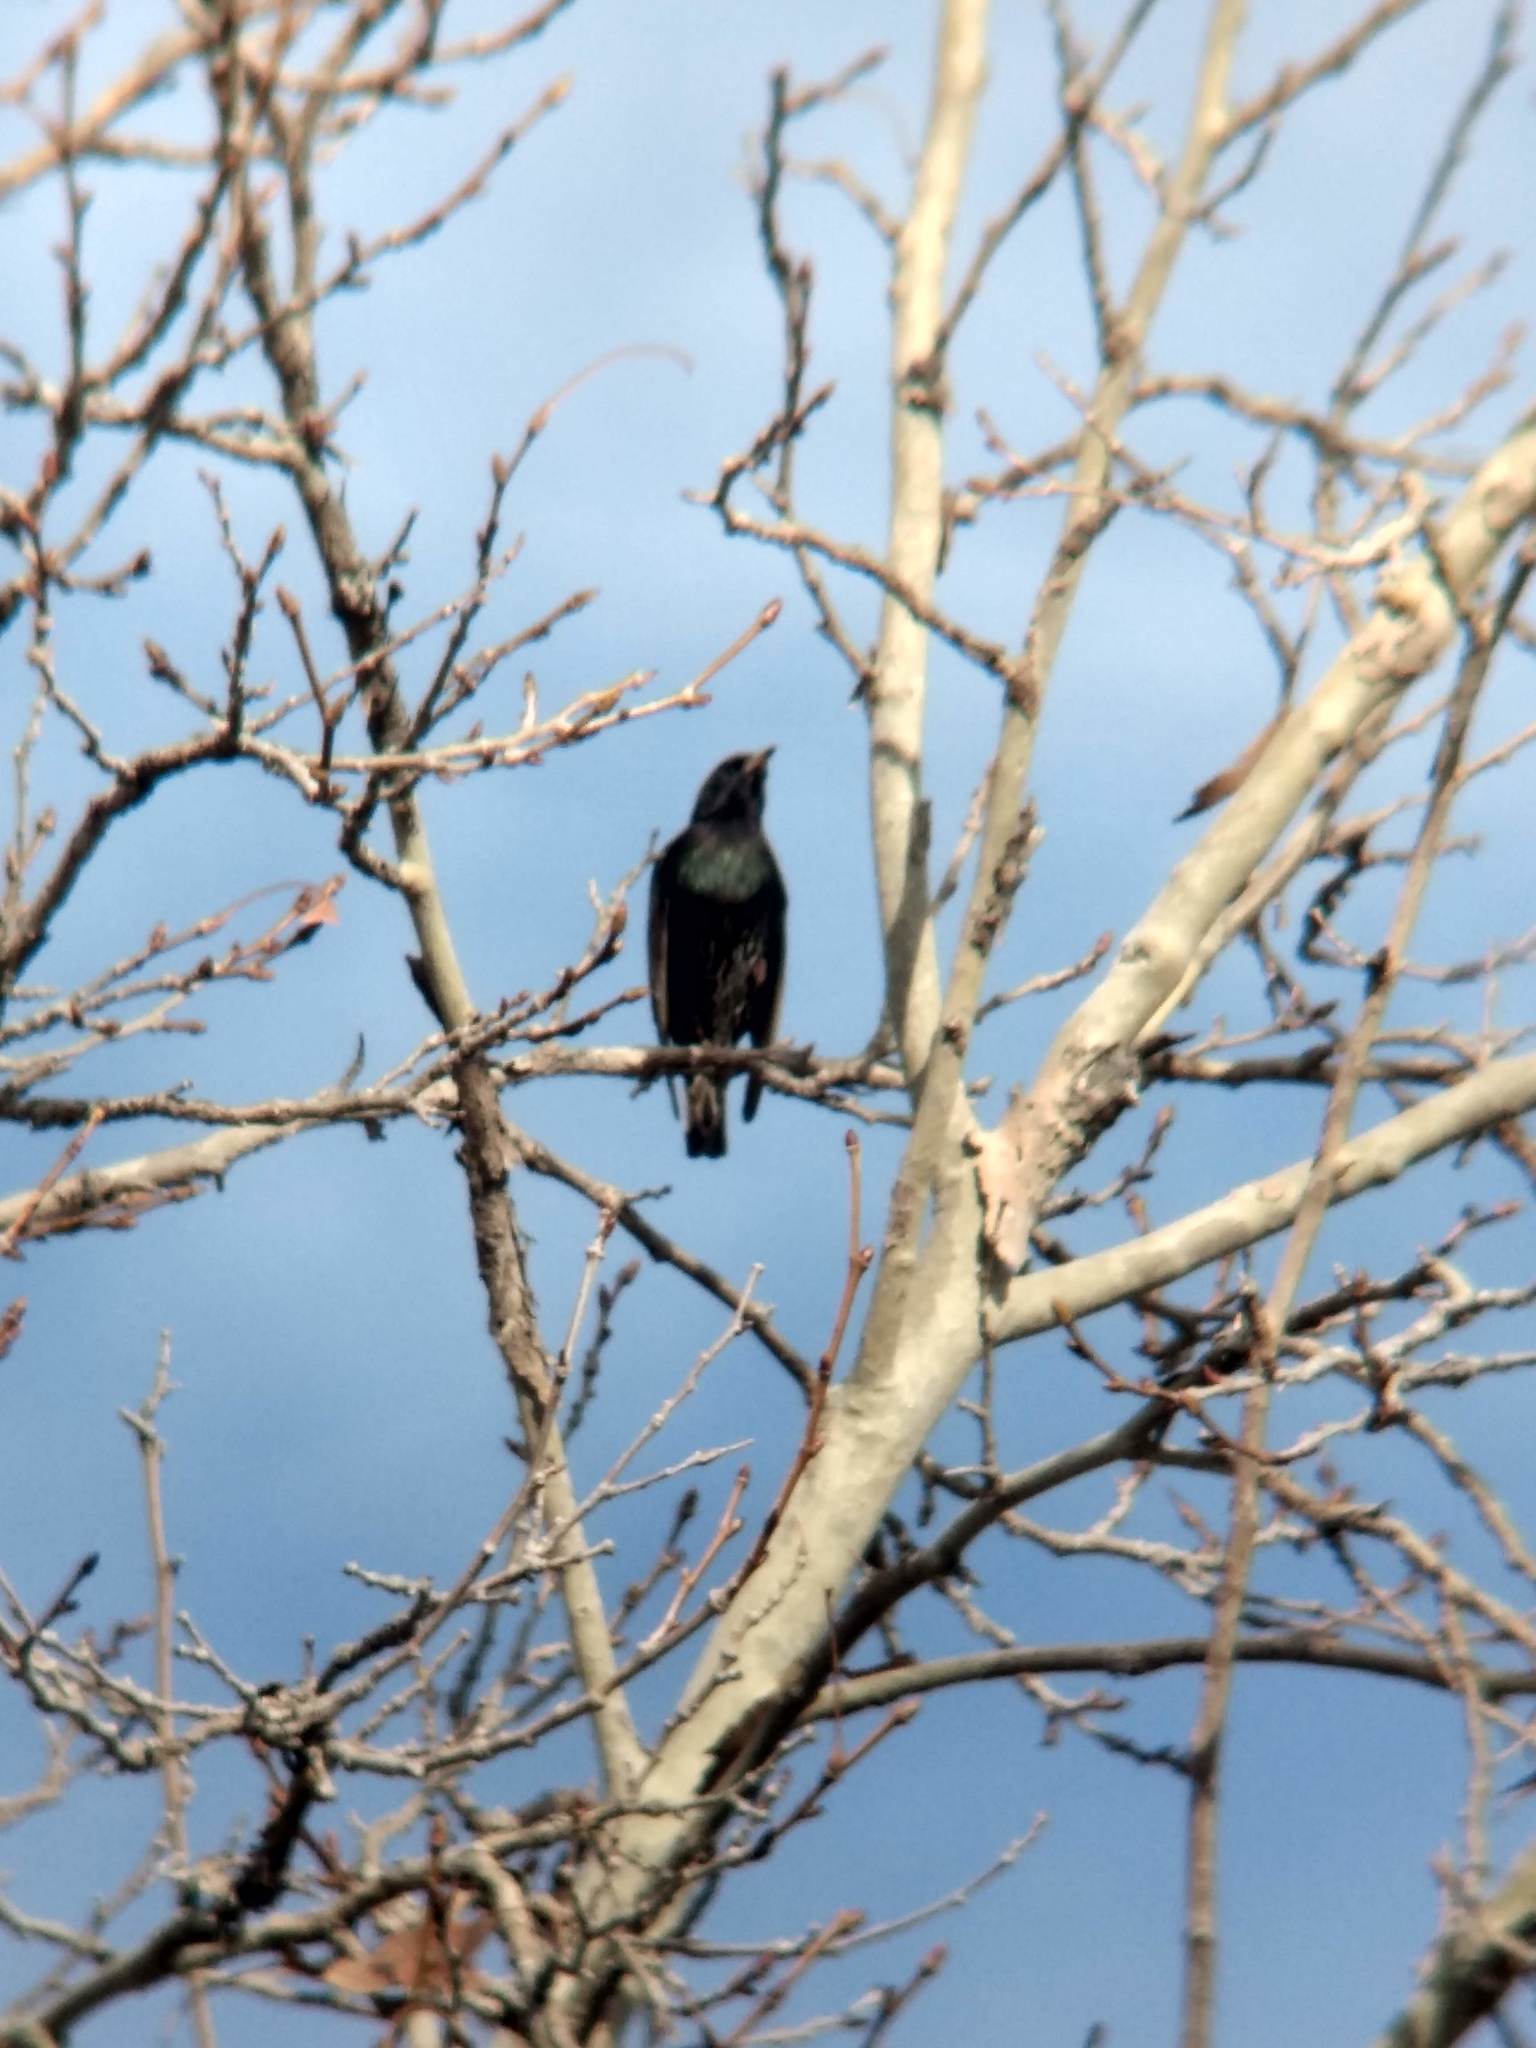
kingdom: Animalia
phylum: Chordata
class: Aves
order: Passeriformes
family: Sturnidae
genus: Sturnus
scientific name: Sturnus vulgaris
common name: Common starling
